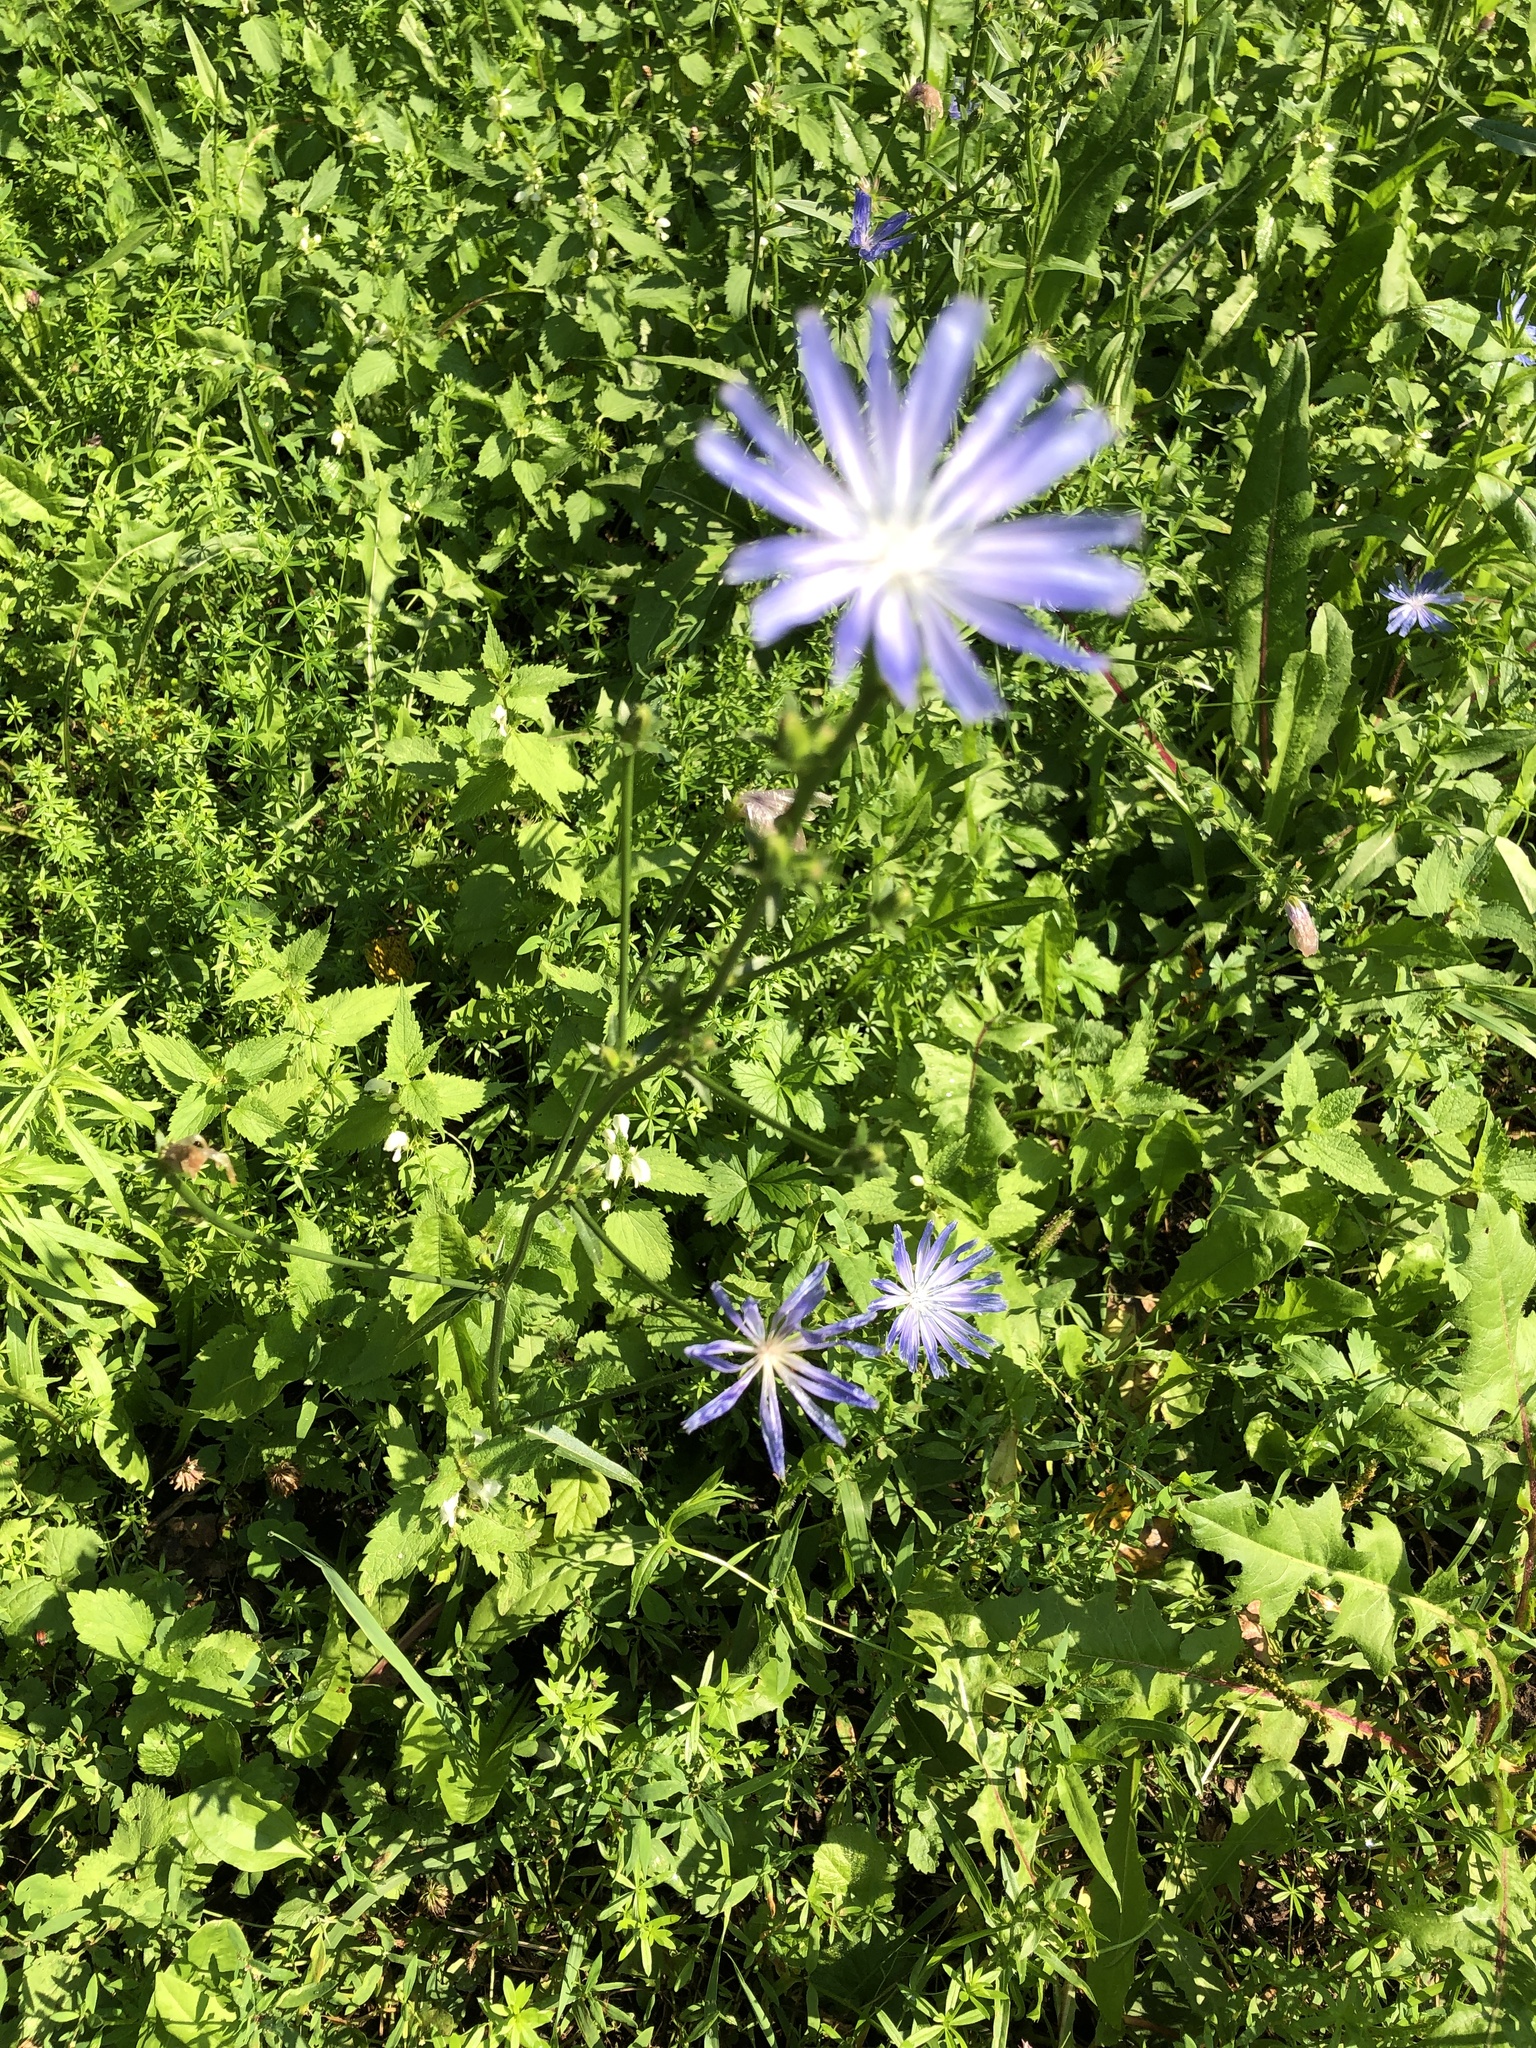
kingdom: Plantae
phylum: Tracheophyta
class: Magnoliopsida
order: Asterales
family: Asteraceae
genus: Cichorium
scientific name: Cichorium intybus
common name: Chicory
